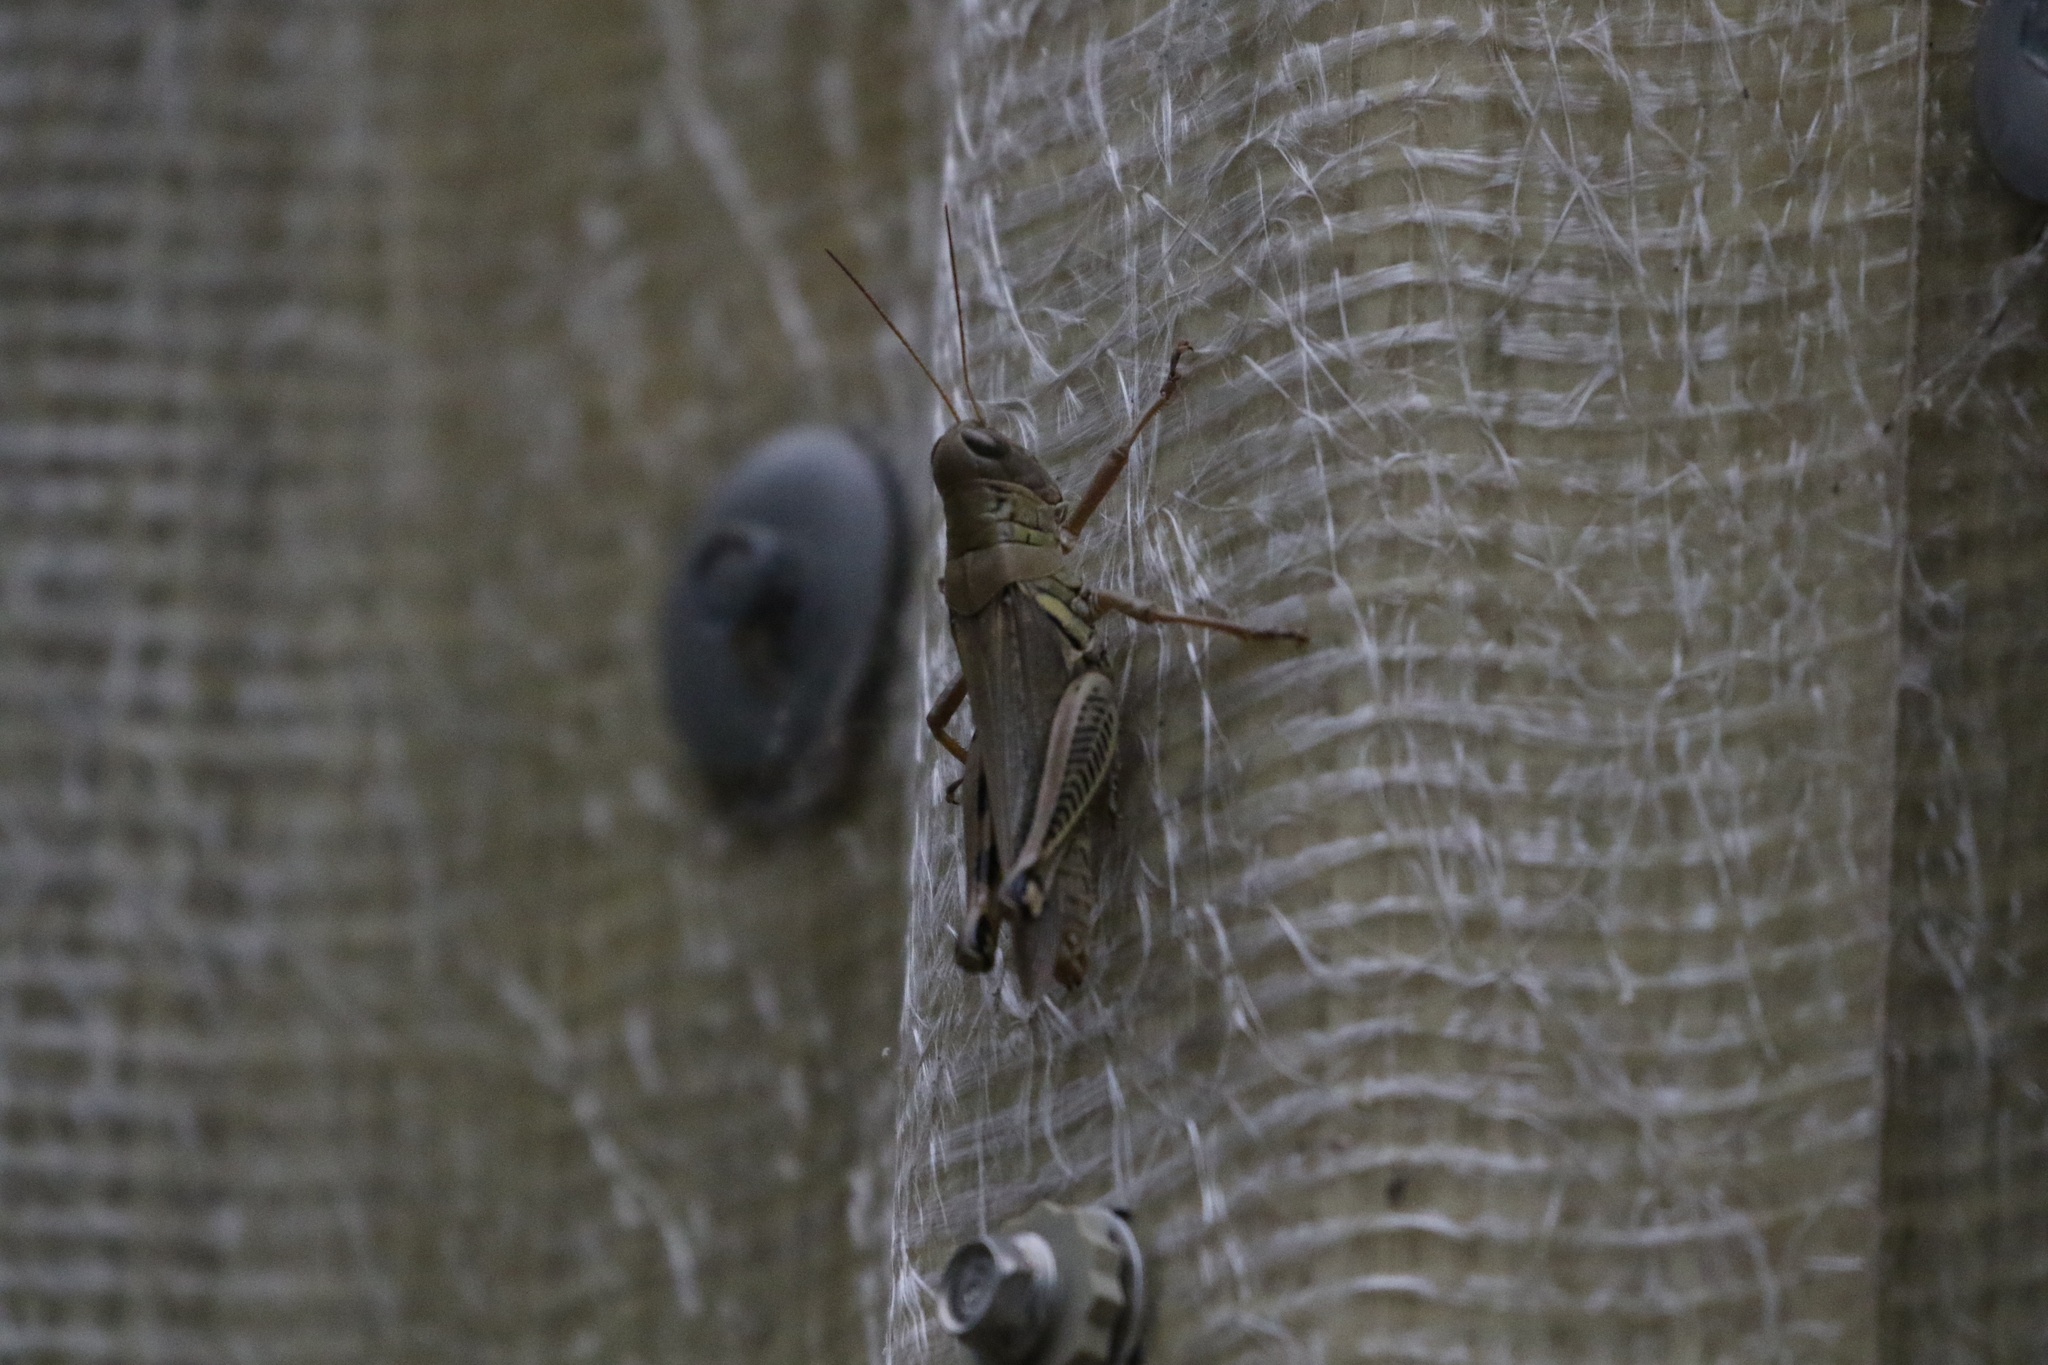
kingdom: Animalia
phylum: Arthropoda
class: Insecta
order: Orthoptera
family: Acrididae
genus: Melanoplus
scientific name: Melanoplus differentialis
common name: Differential grasshopper
